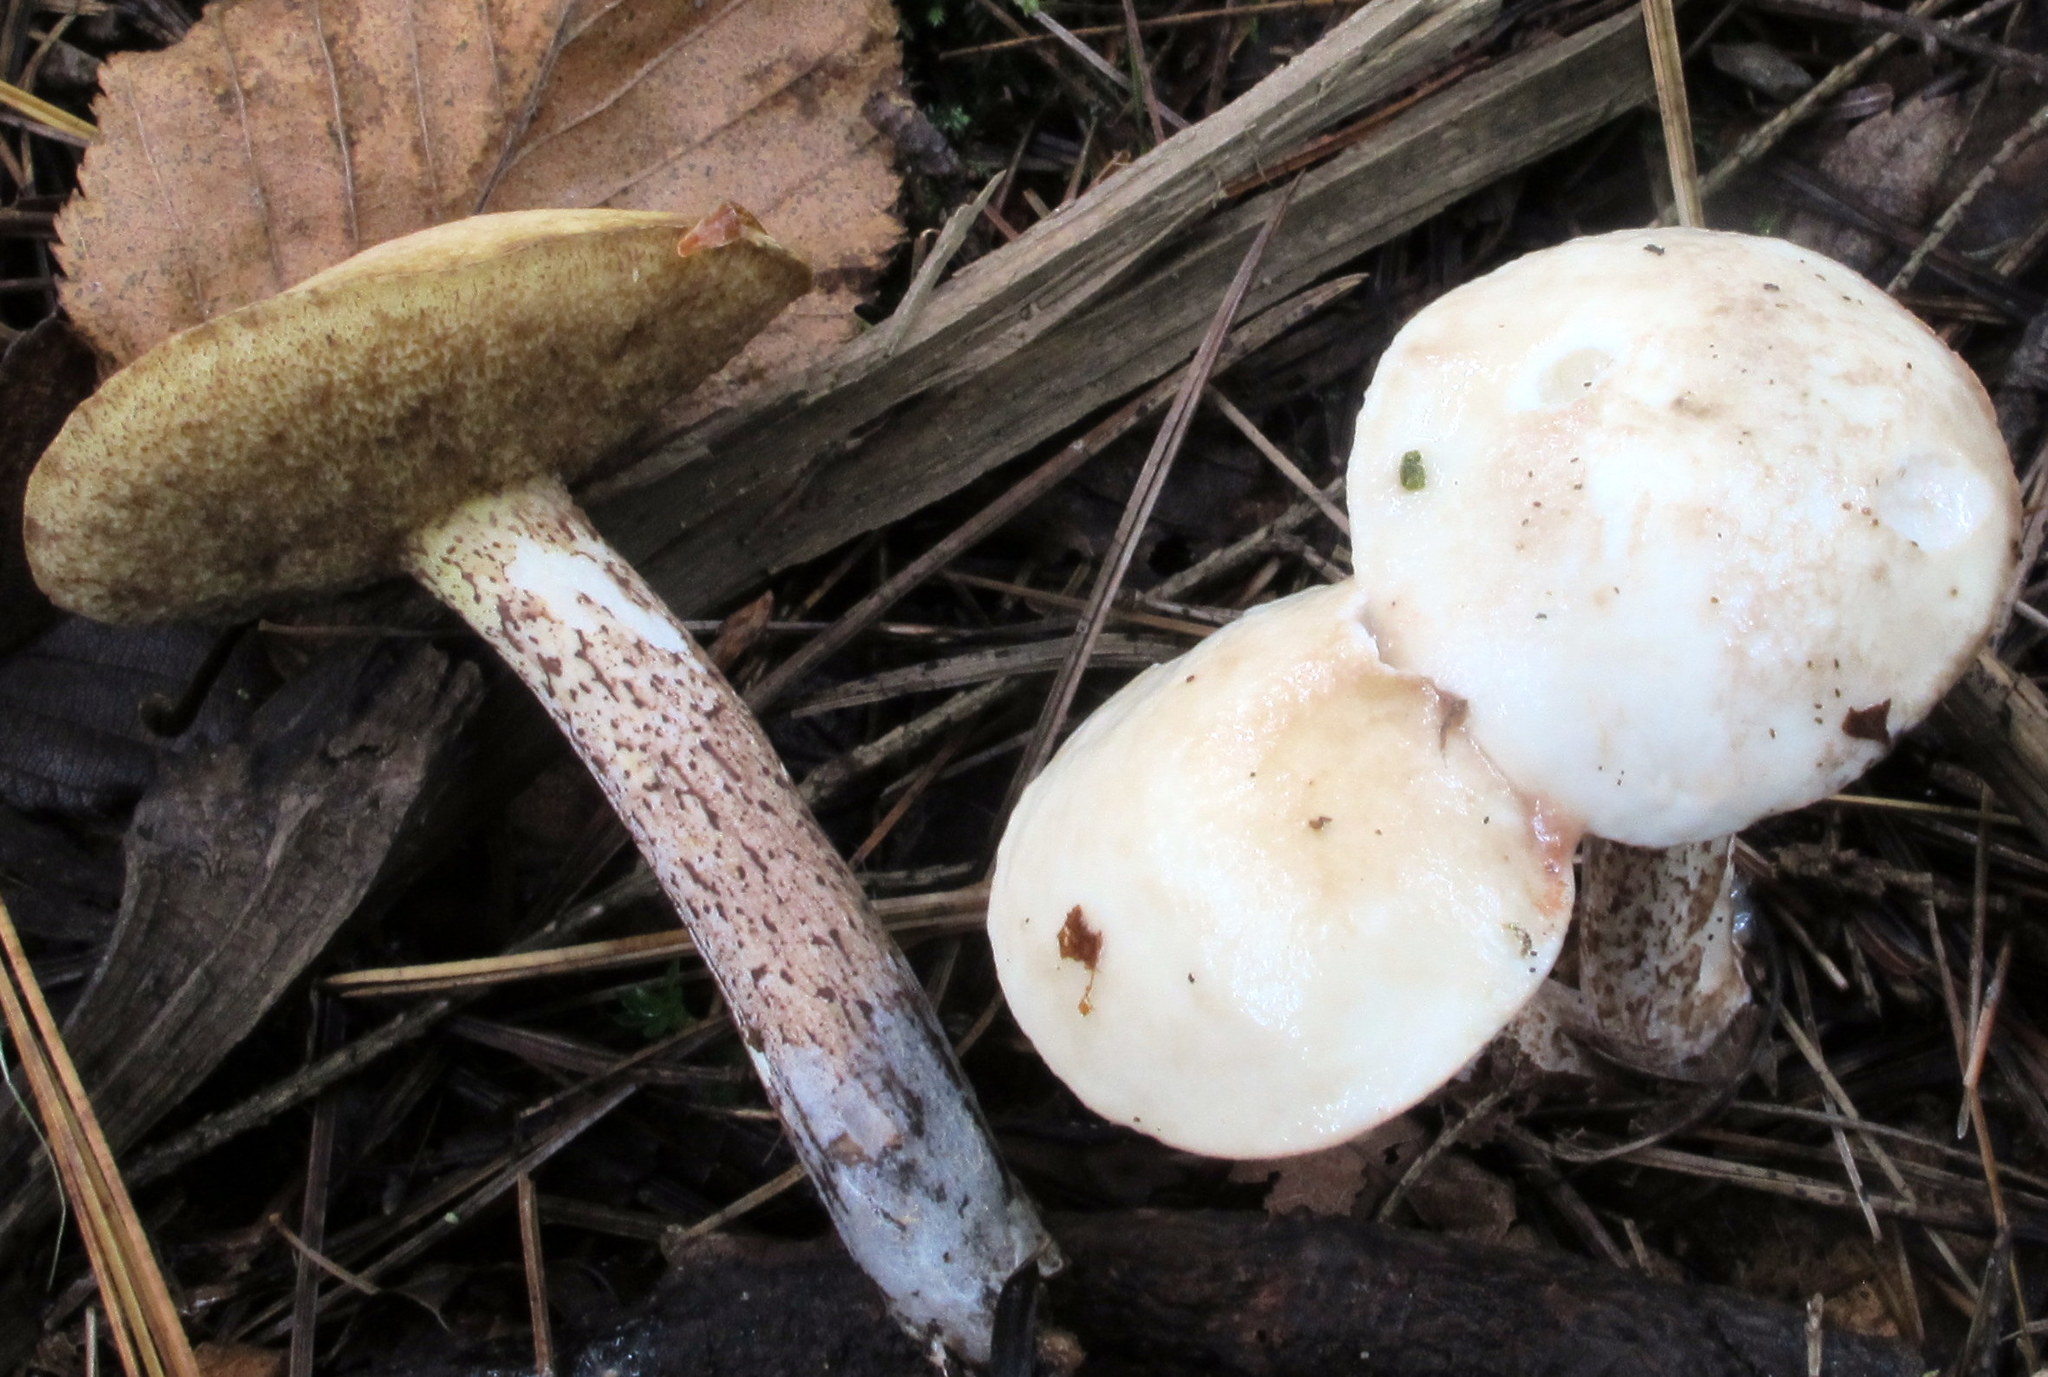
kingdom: Fungi
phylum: Basidiomycota
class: Agaricomycetes
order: Boletales
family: Suillaceae
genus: Suillus
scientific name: Suillus placidus
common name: Slippery white bolete
